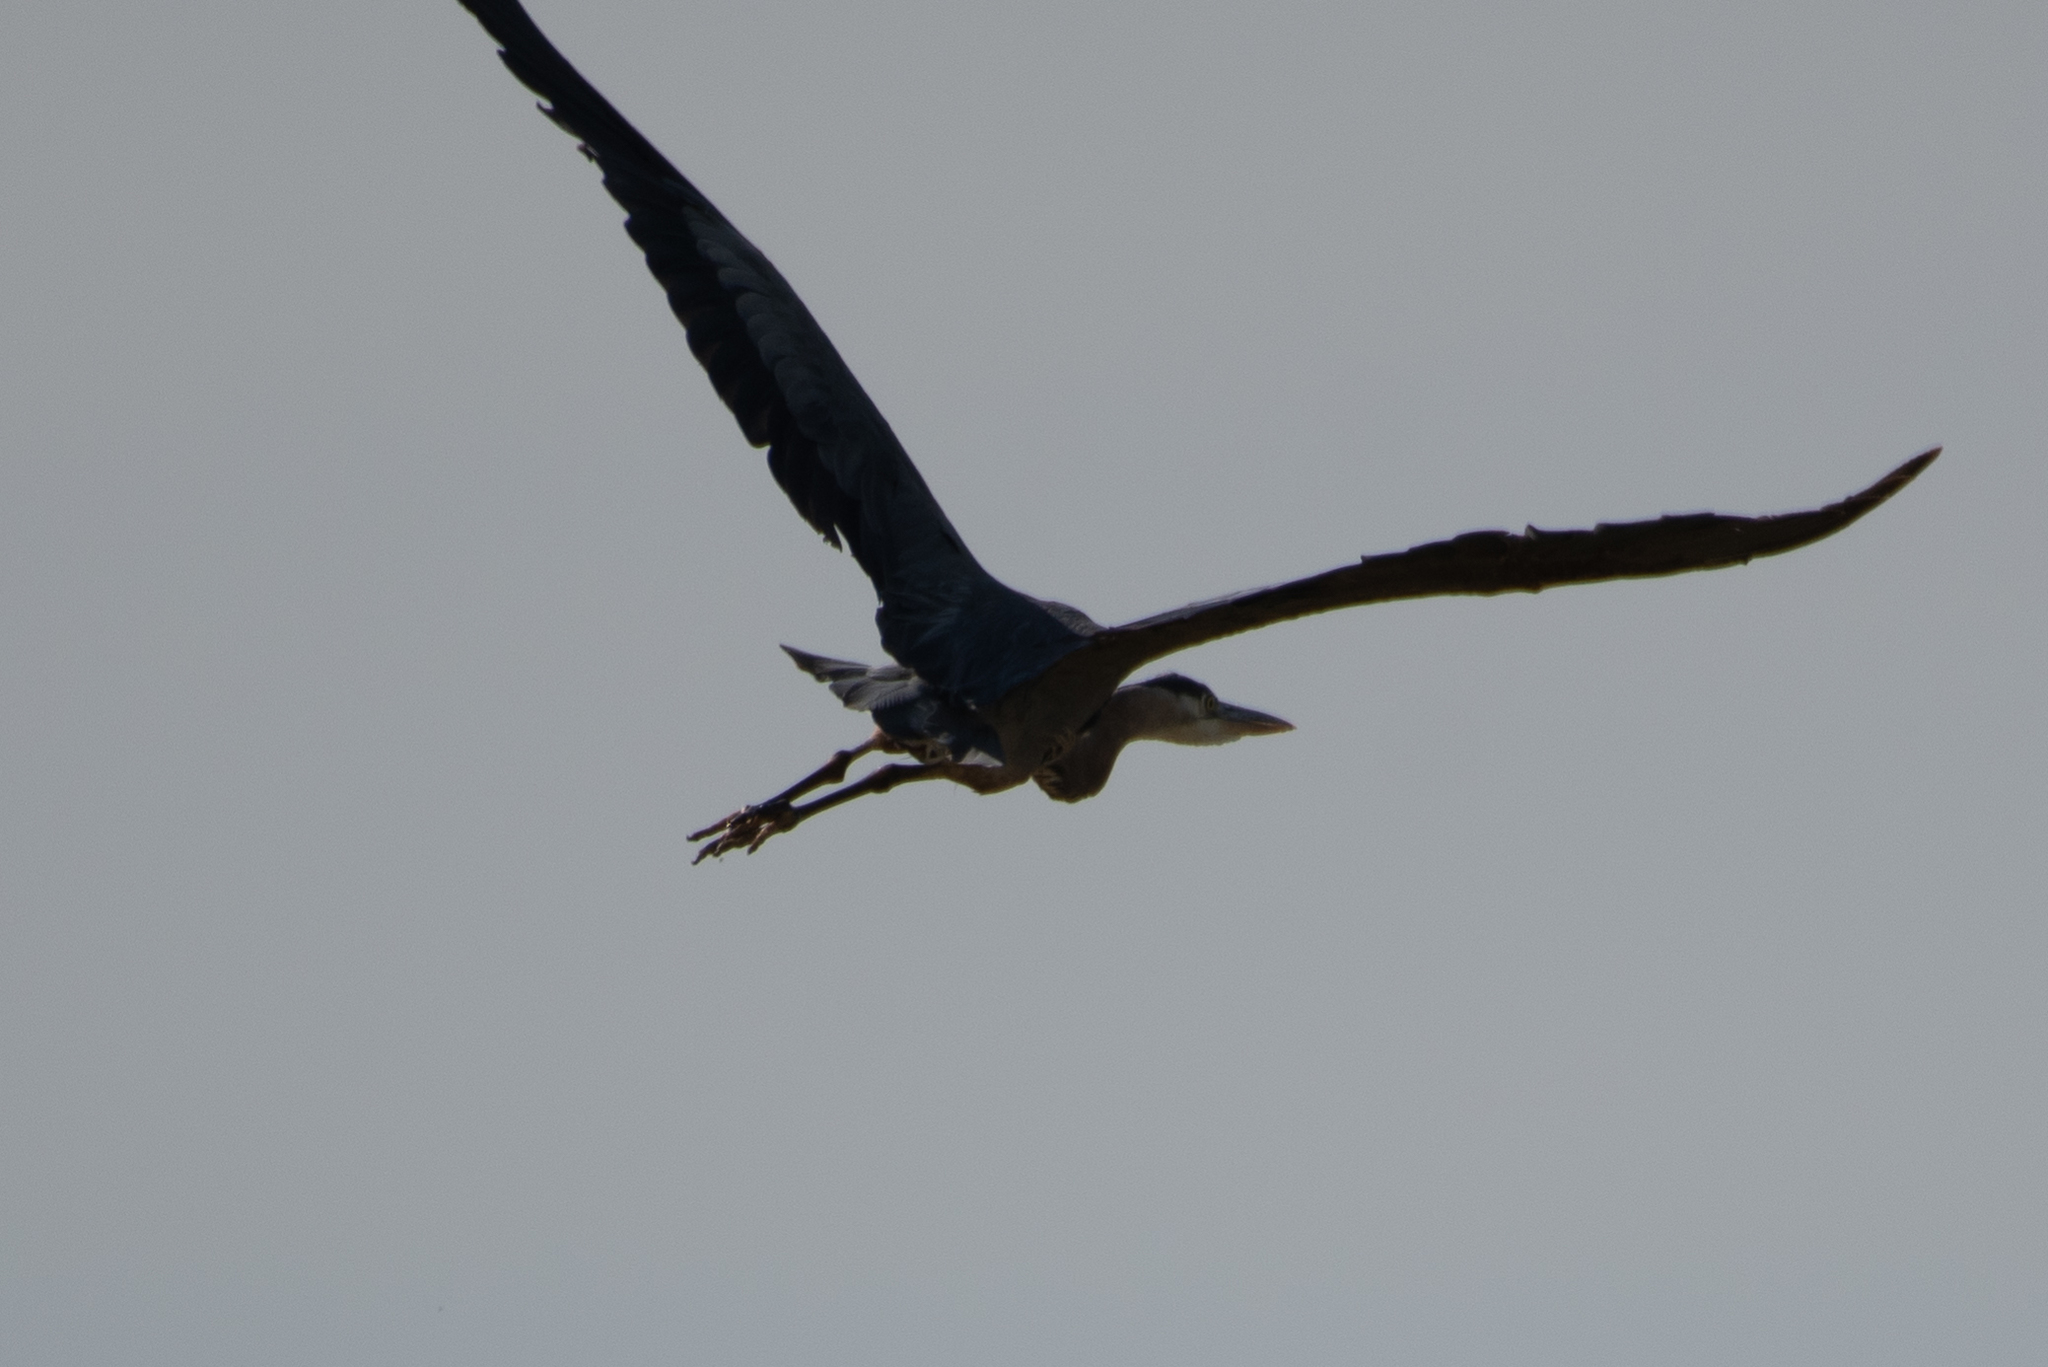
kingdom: Animalia
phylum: Chordata
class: Aves
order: Pelecaniformes
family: Ardeidae
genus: Ardea
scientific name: Ardea herodias
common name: Great blue heron
